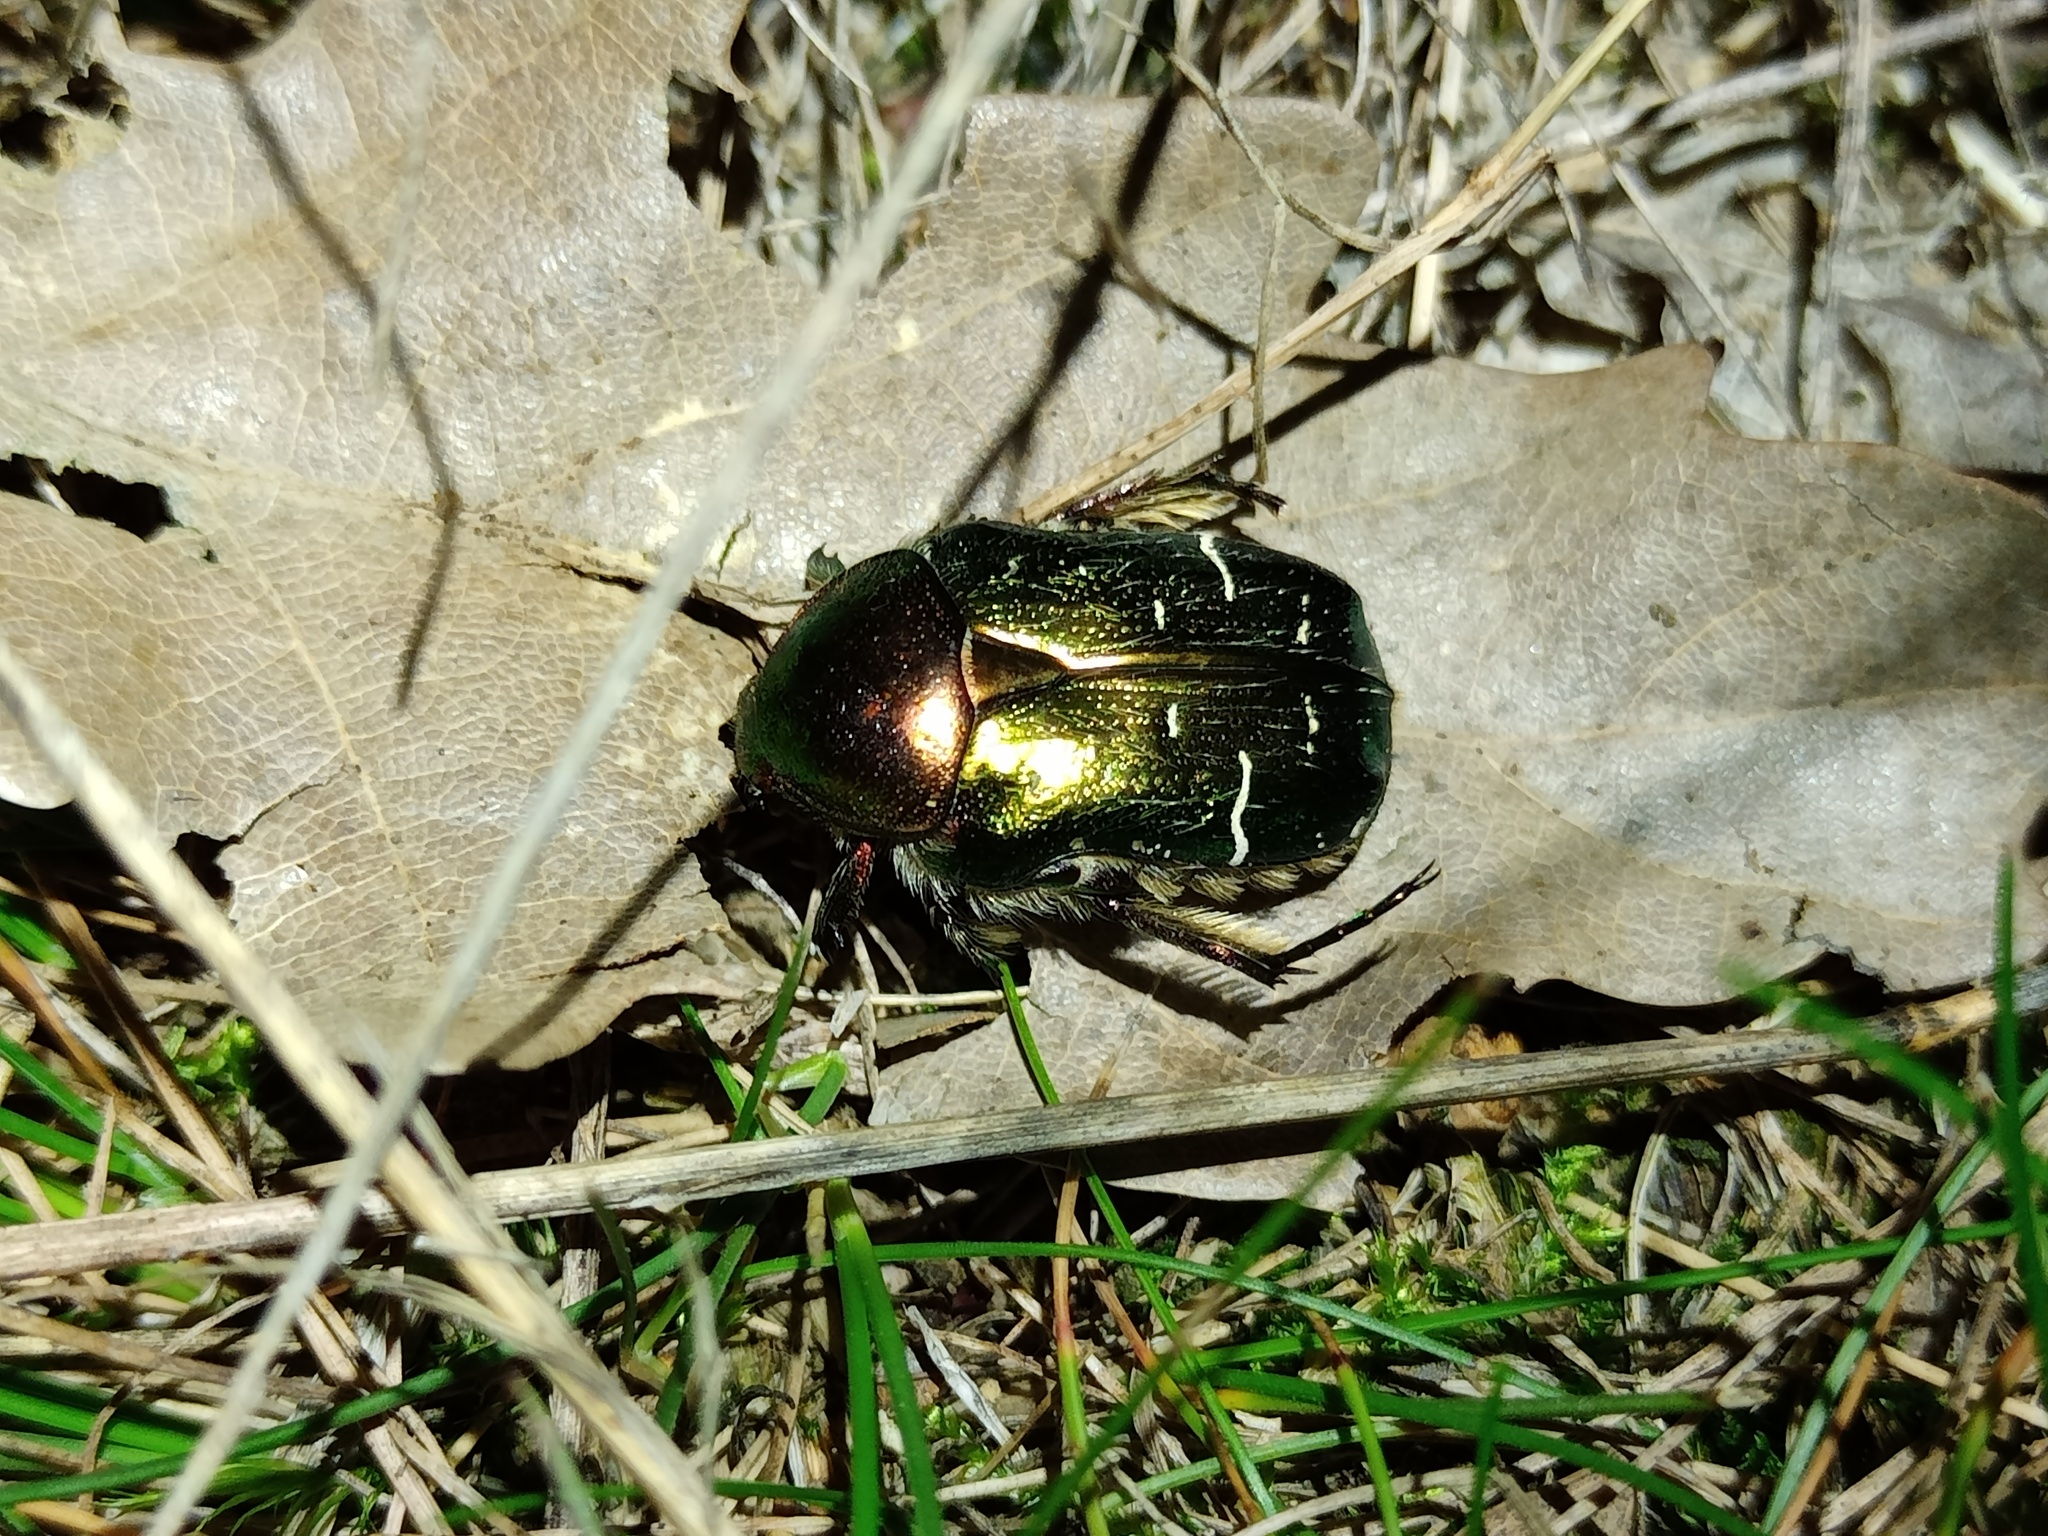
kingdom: Animalia
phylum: Arthropoda
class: Insecta
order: Coleoptera
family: Scarabaeidae
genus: Cetonia
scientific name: Cetonia aurata
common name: Rose chafer
